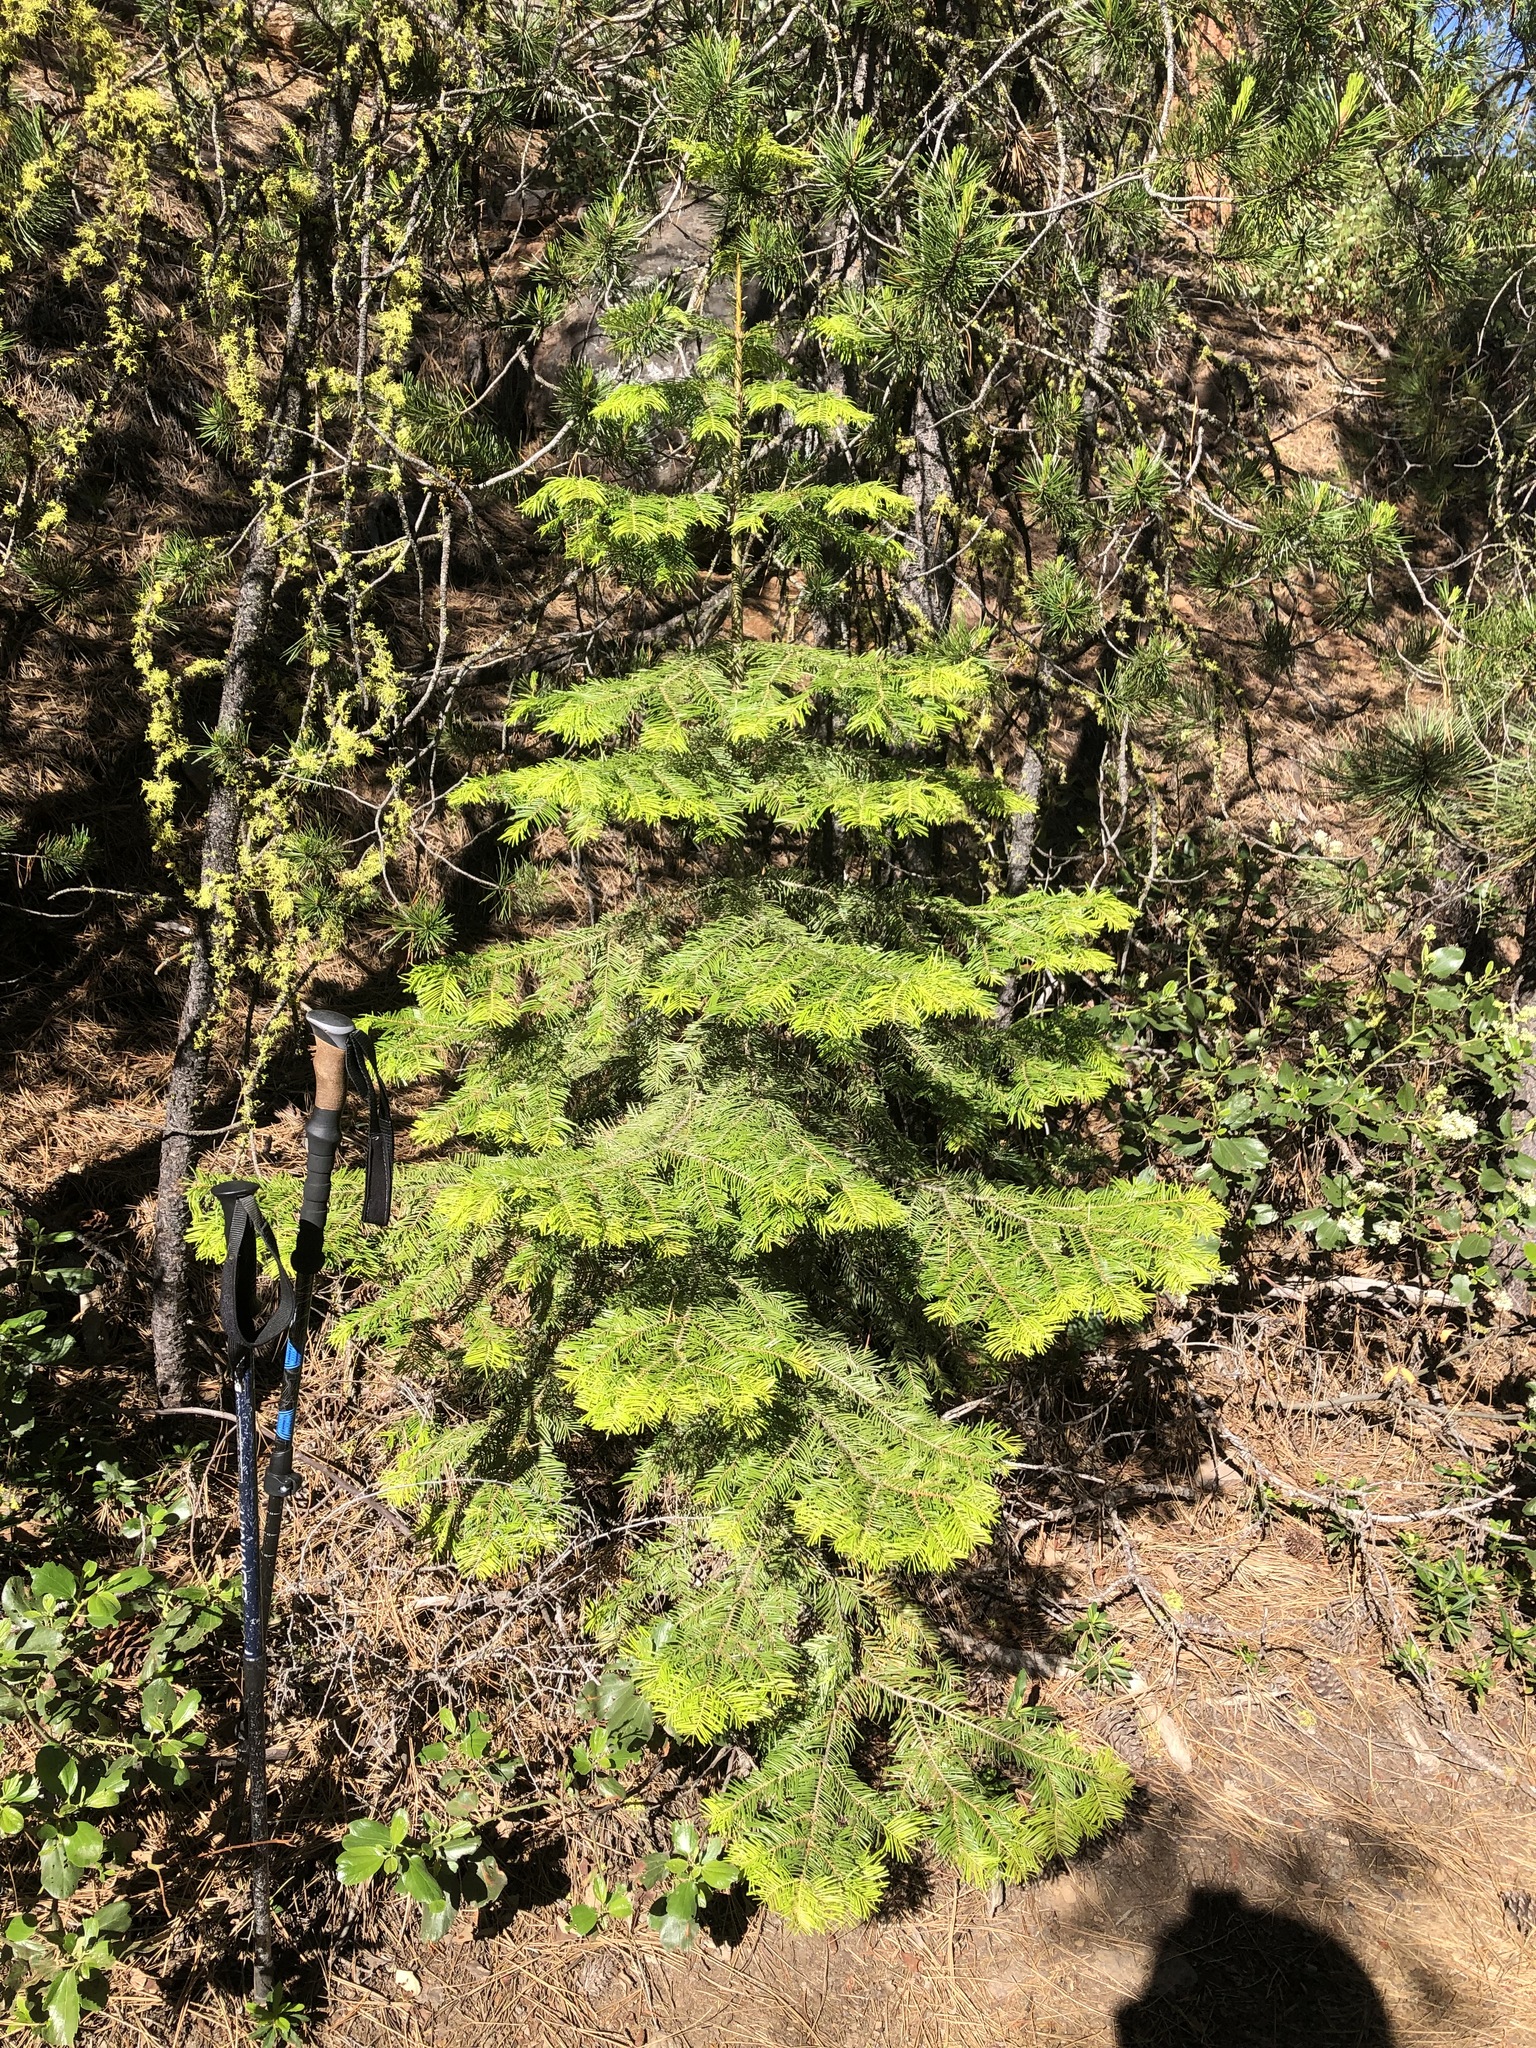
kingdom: Plantae
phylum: Tracheophyta
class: Pinopsida
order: Pinales
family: Pinaceae
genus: Abies
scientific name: Abies concolor
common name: Colorado fir
